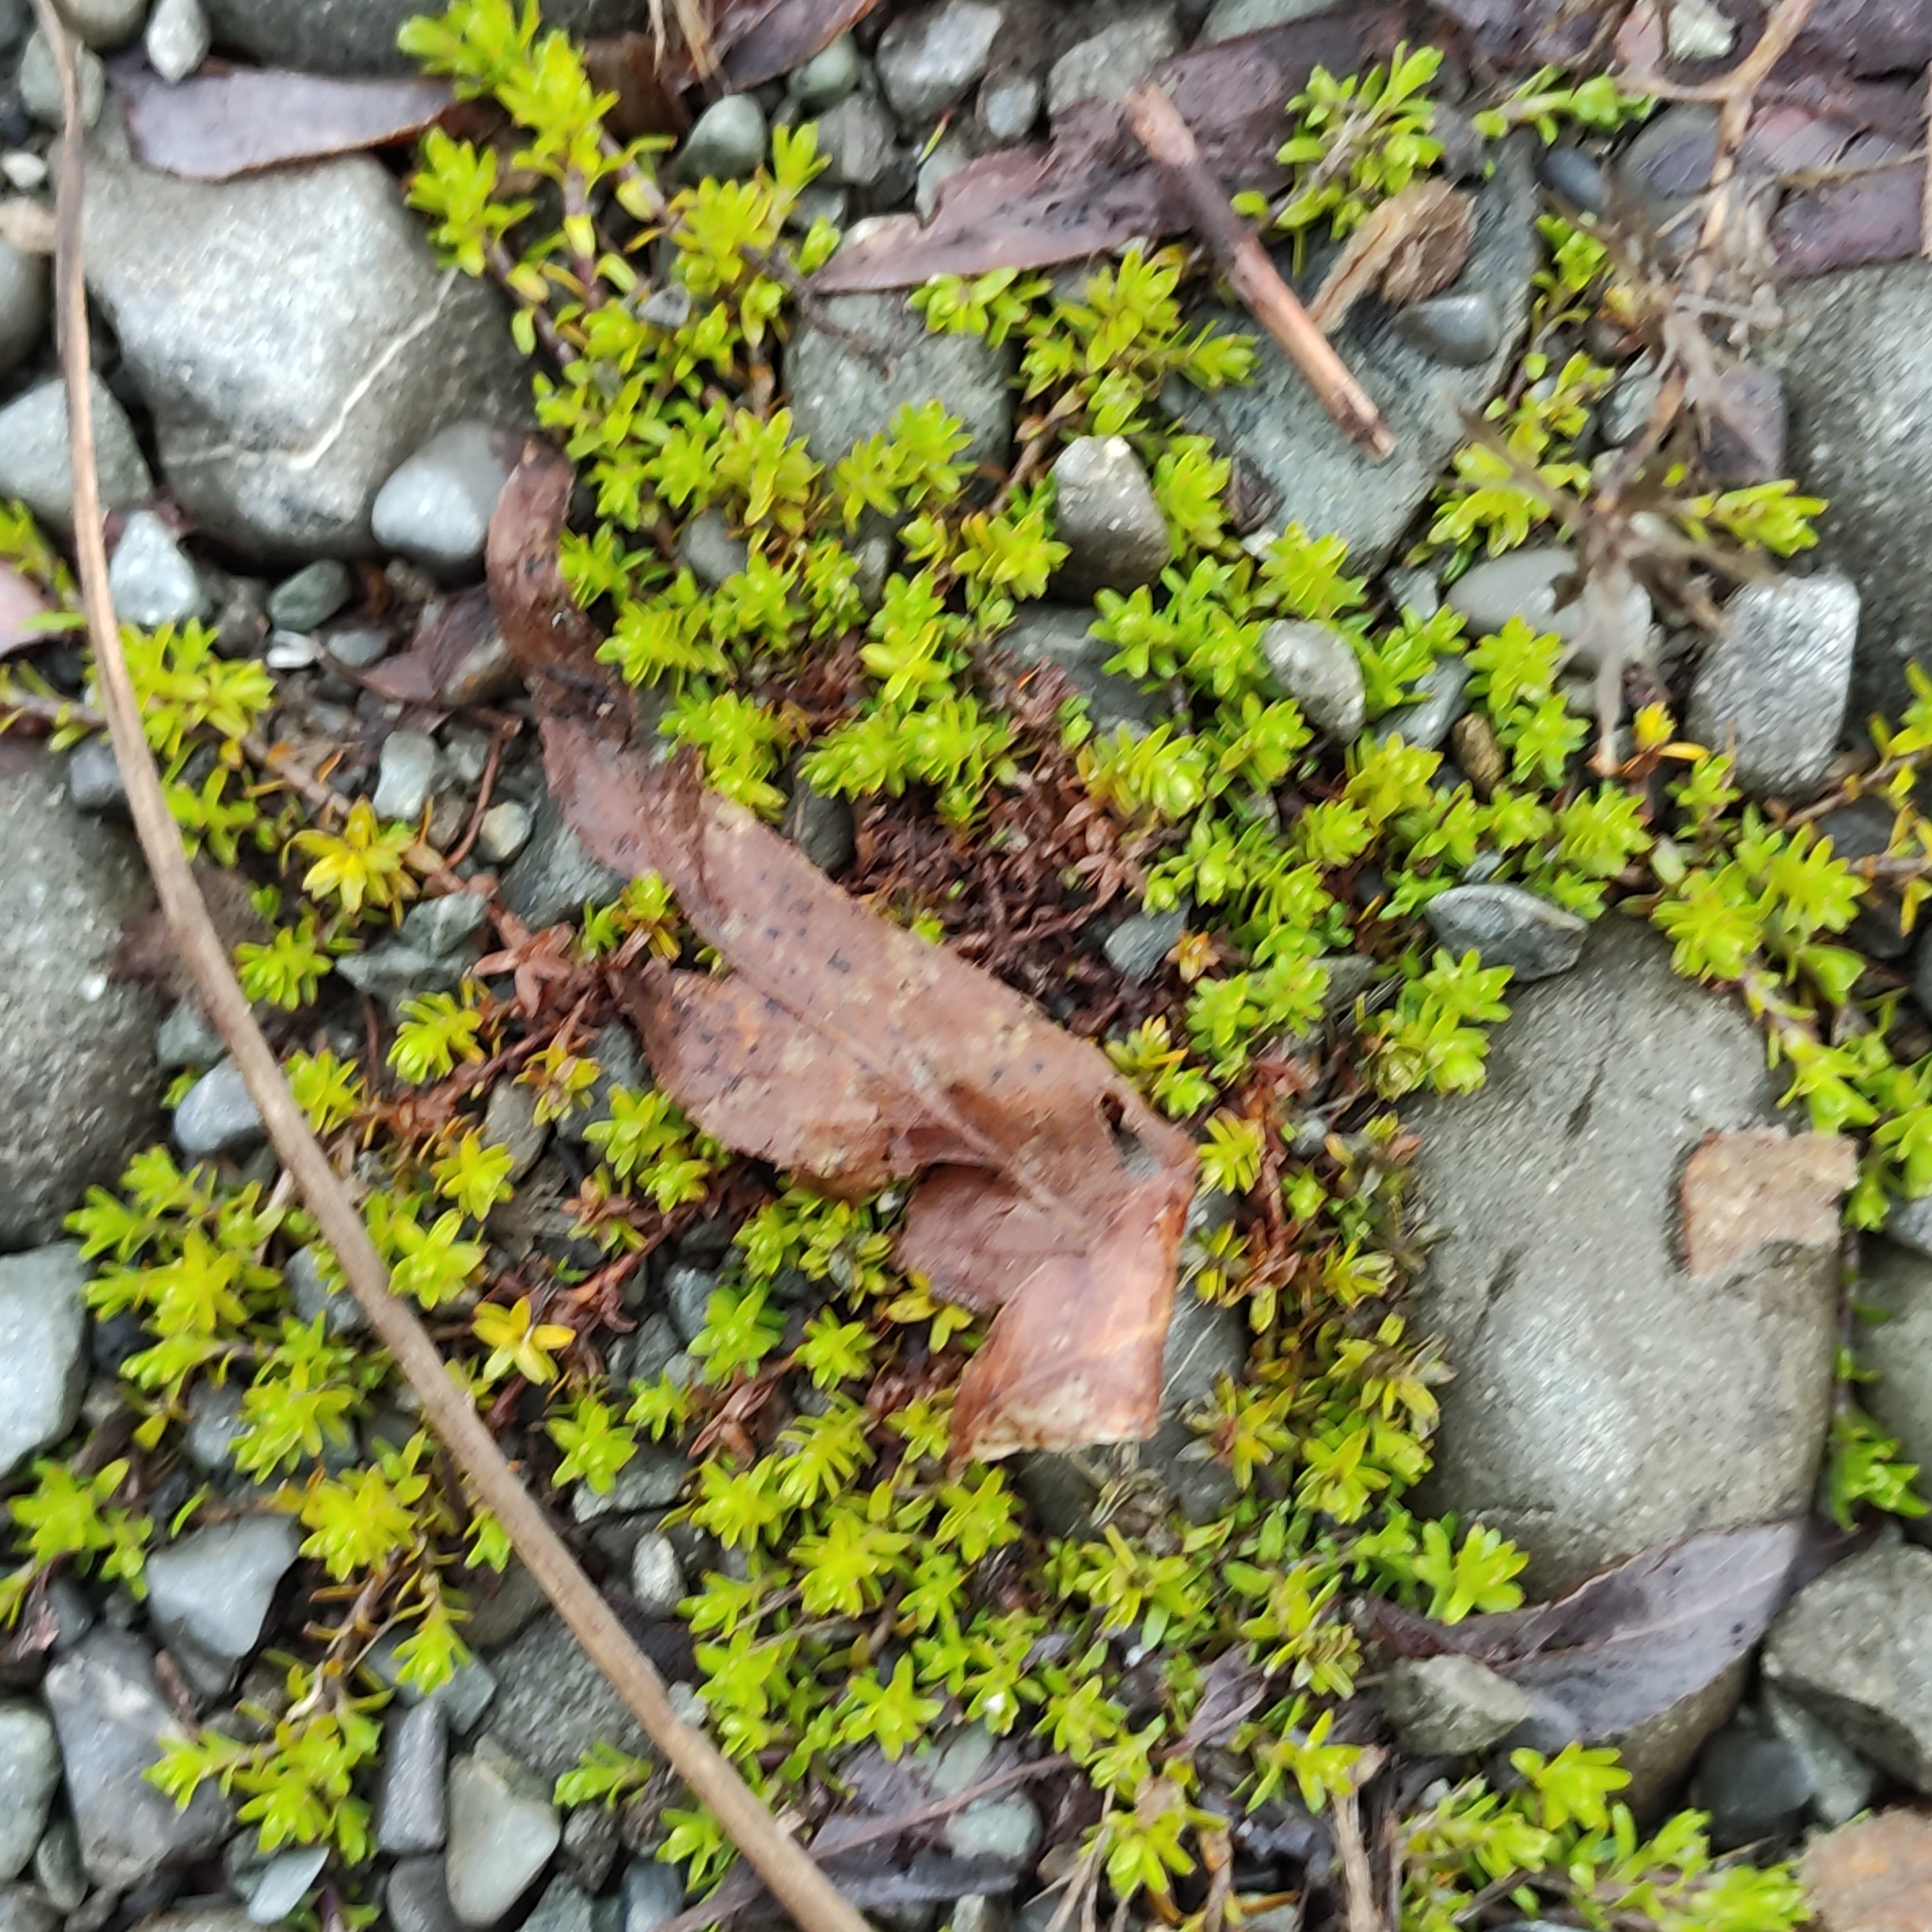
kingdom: Plantae
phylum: Tracheophyta
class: Magnoliopsida
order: Asterales
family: Asteraceae
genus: Raoulia
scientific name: Raoulia glabra
